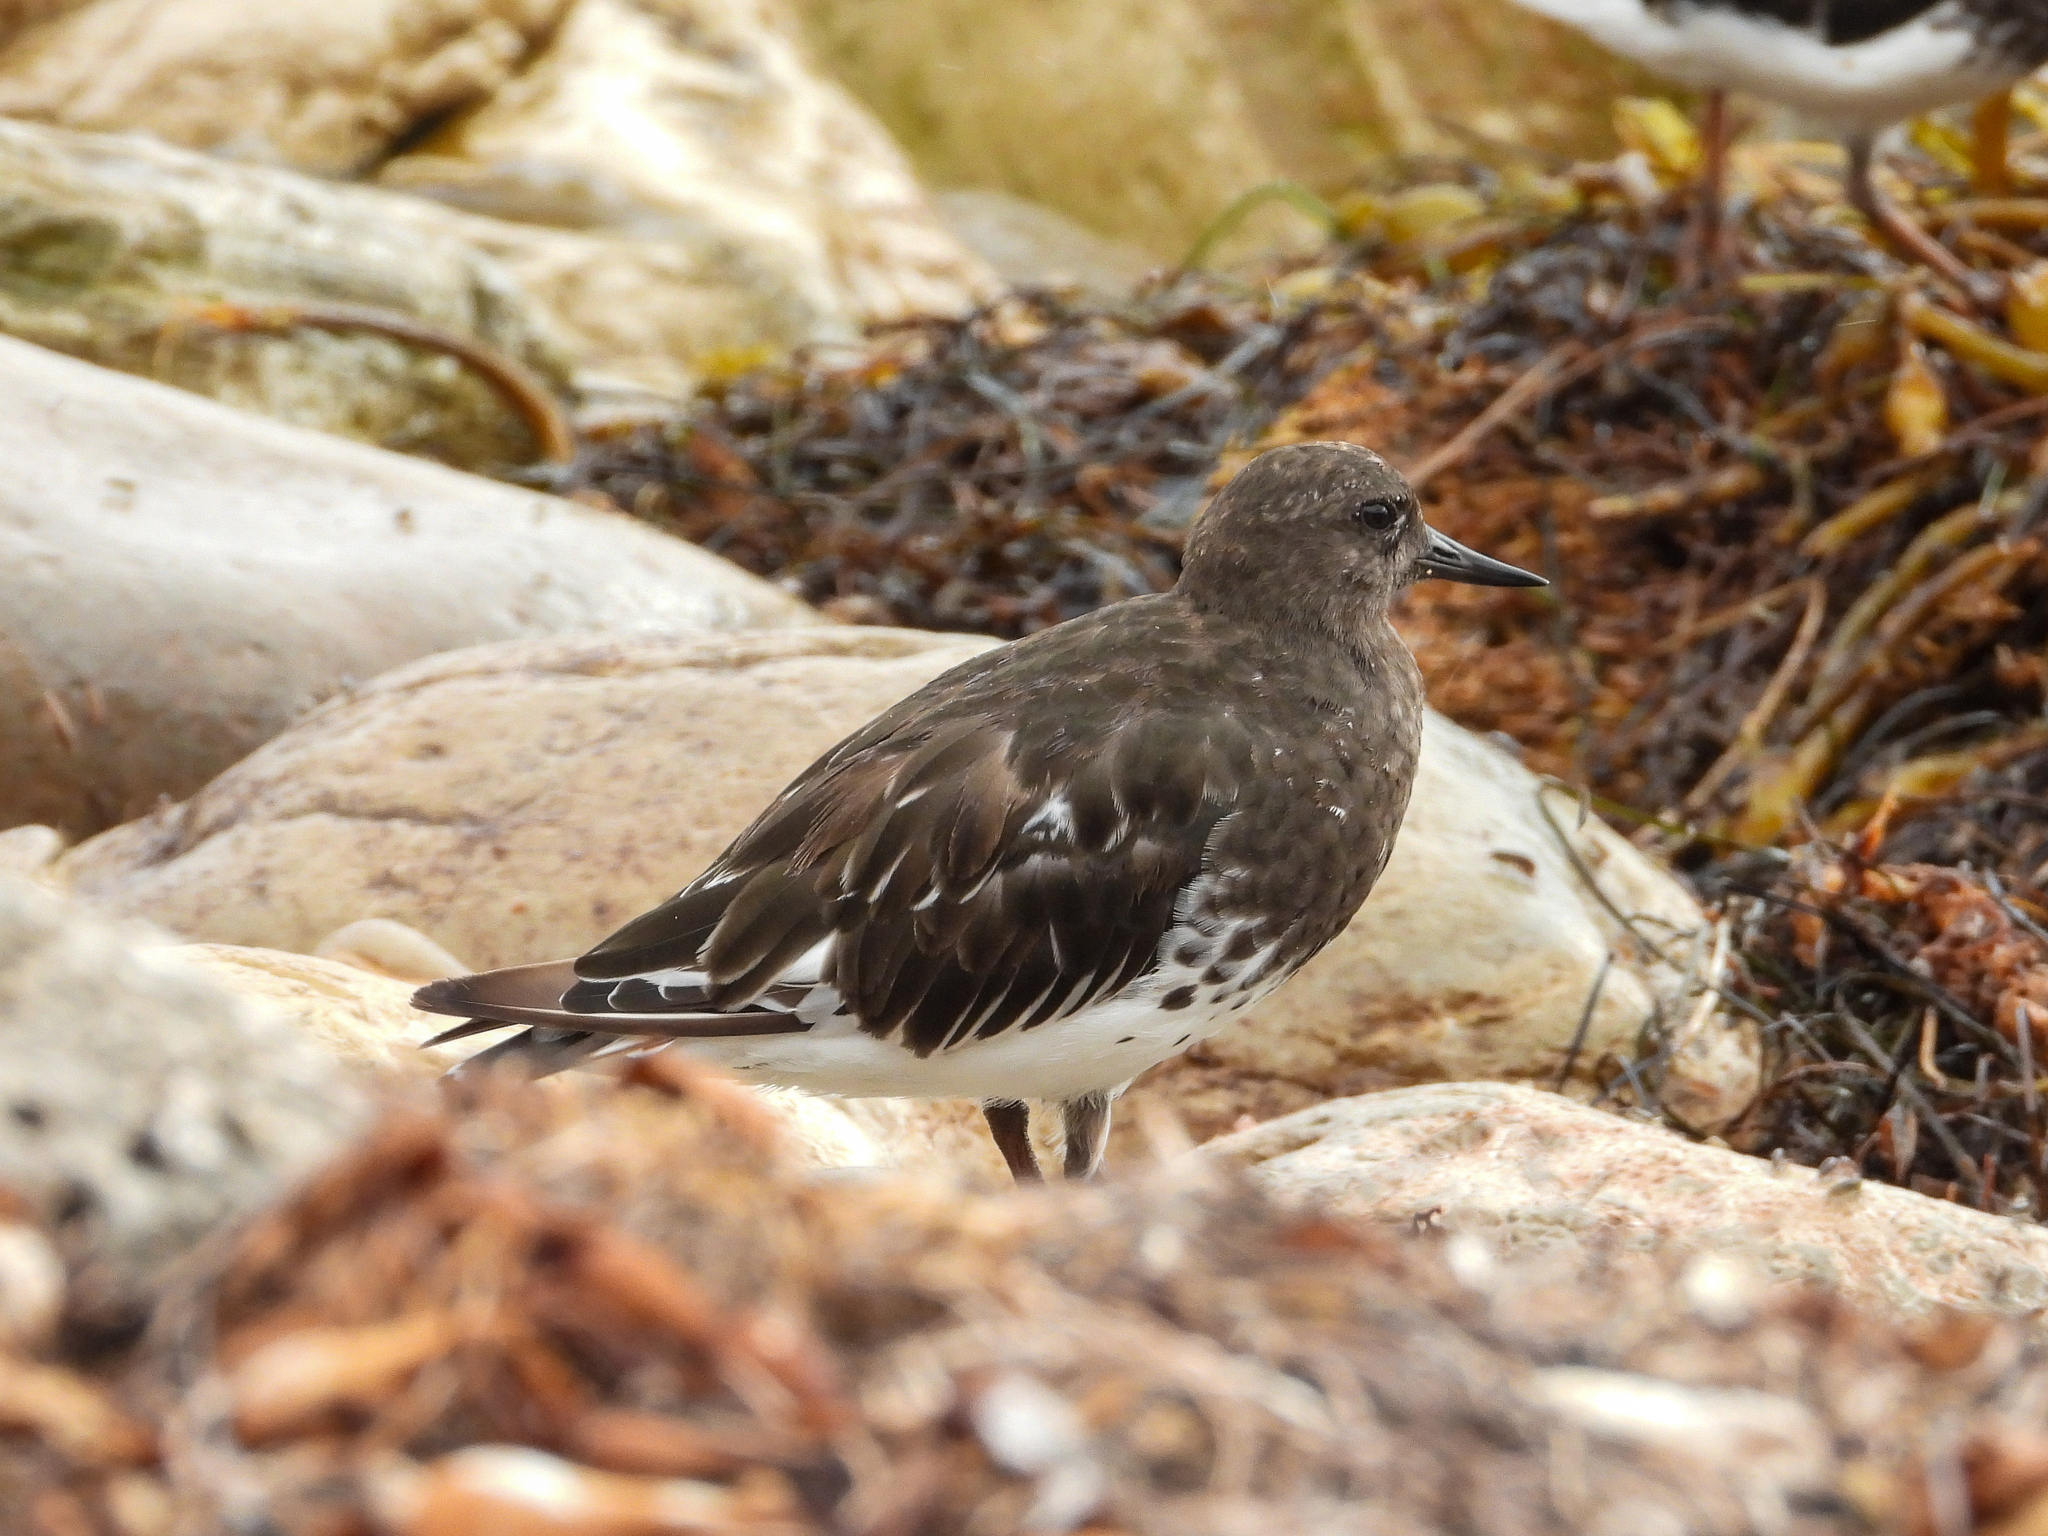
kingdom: Animalia
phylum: Chordata
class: Aves
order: Charadriiformes
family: Scolopacidae
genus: Arenaria
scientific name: Arenaria melanocephala
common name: Black turnstone
